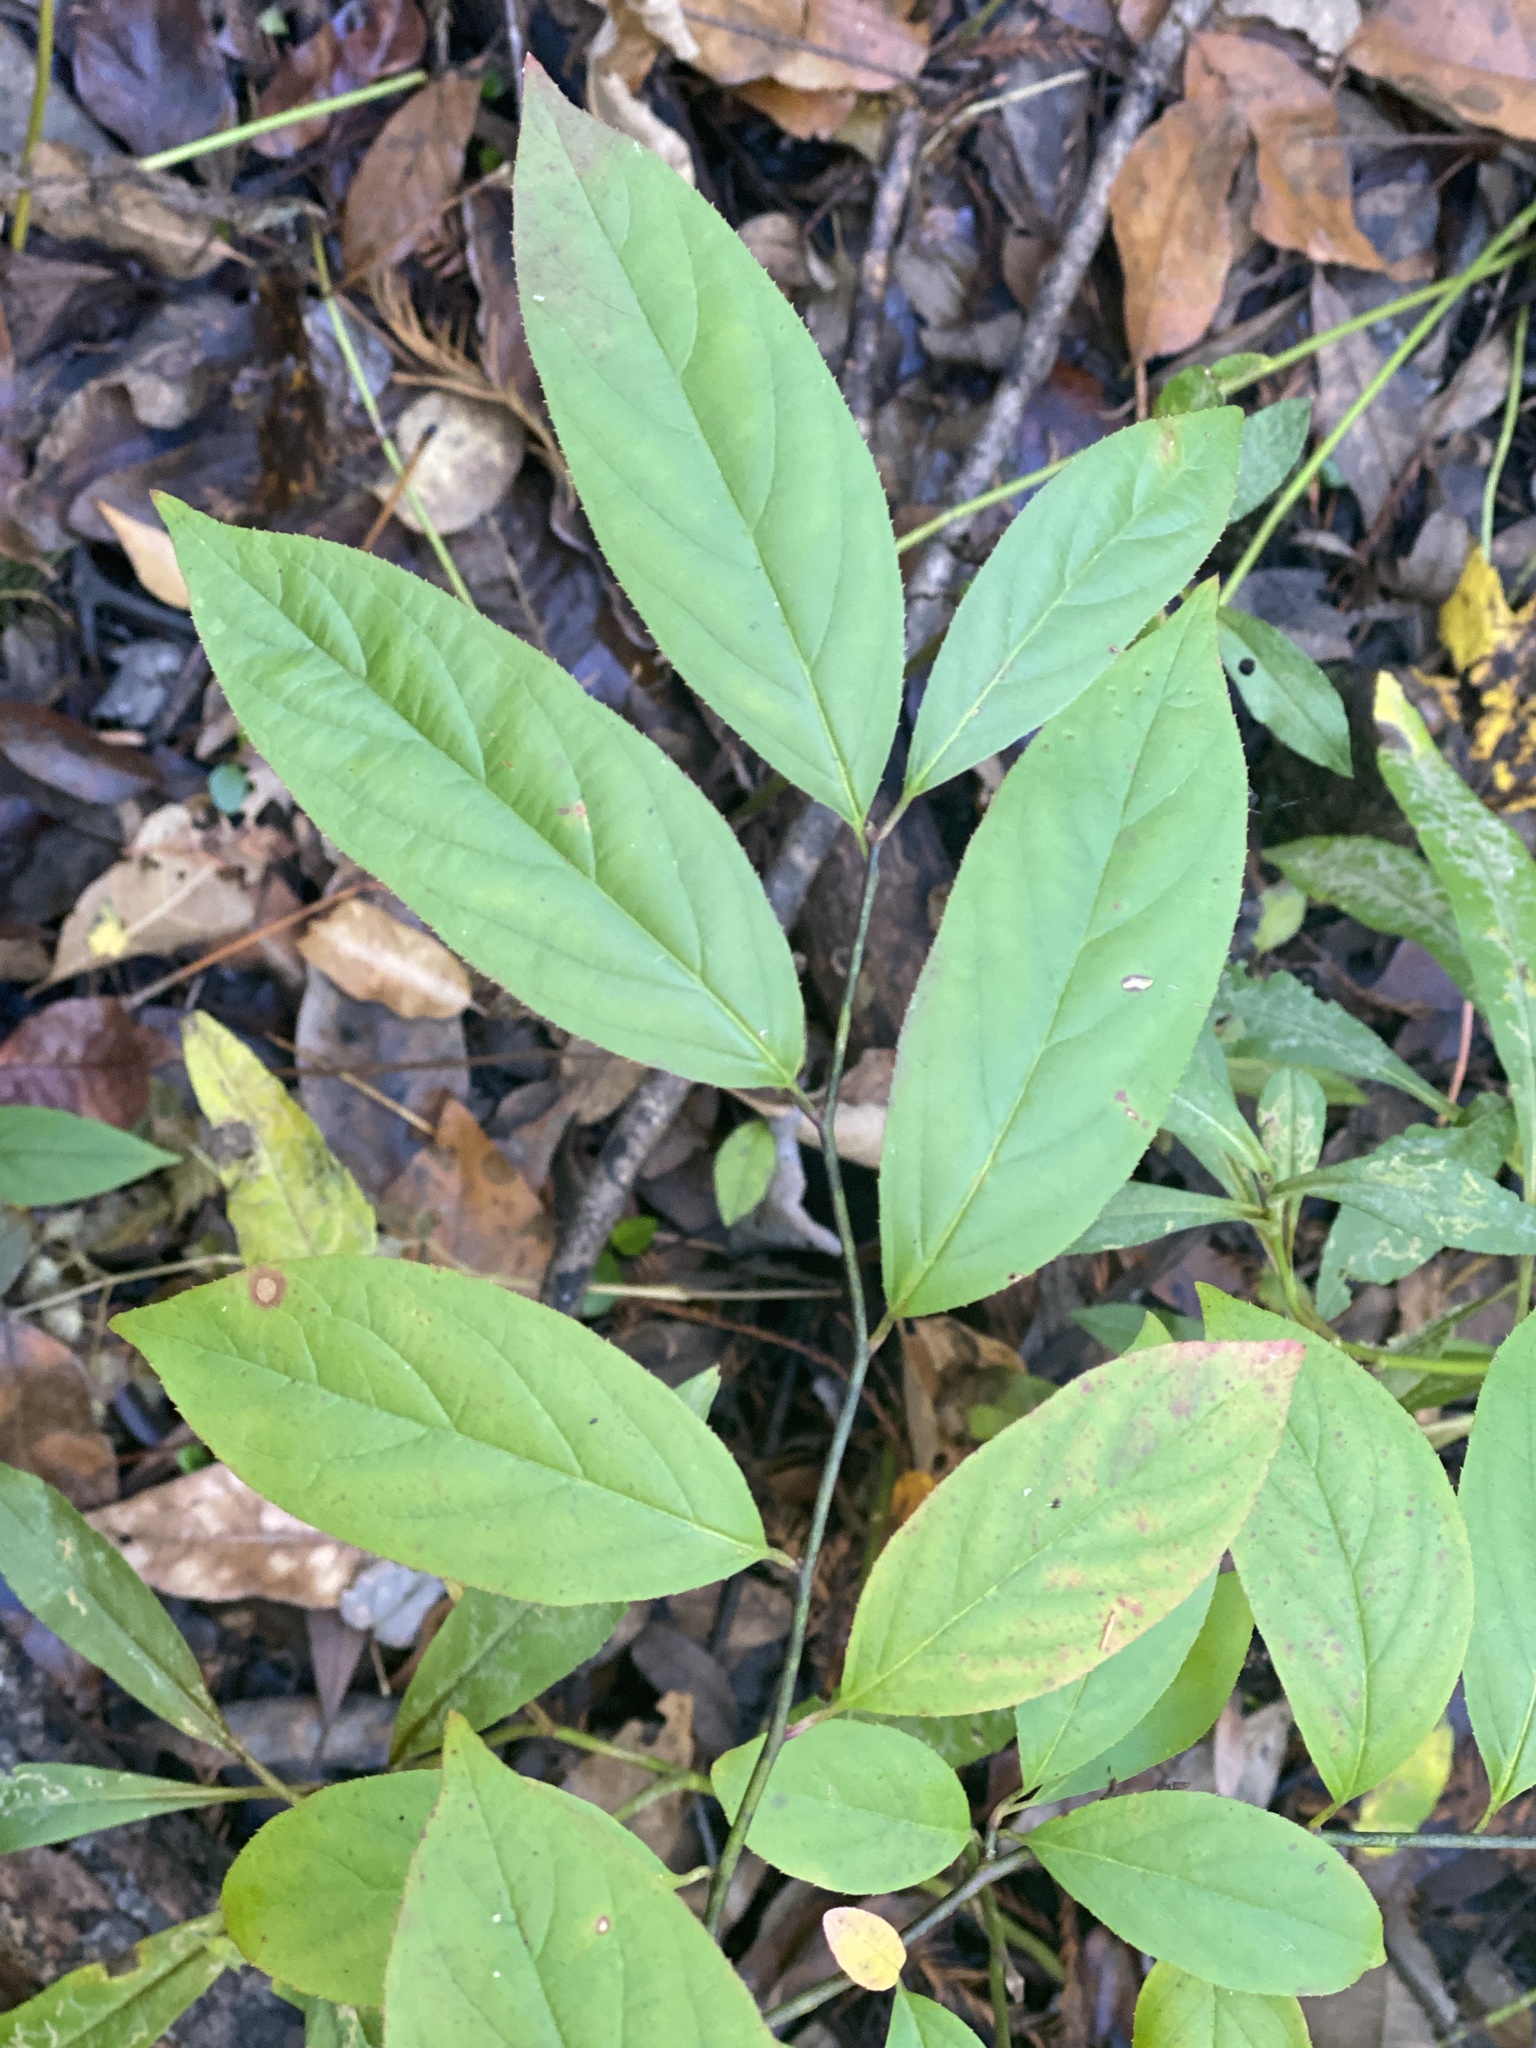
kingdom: Plantae
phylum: Tracheophyta
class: Magnoliopsida
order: Saxifragales
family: Iteaceae
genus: Itea
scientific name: Itea virginica
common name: Sweetspire
